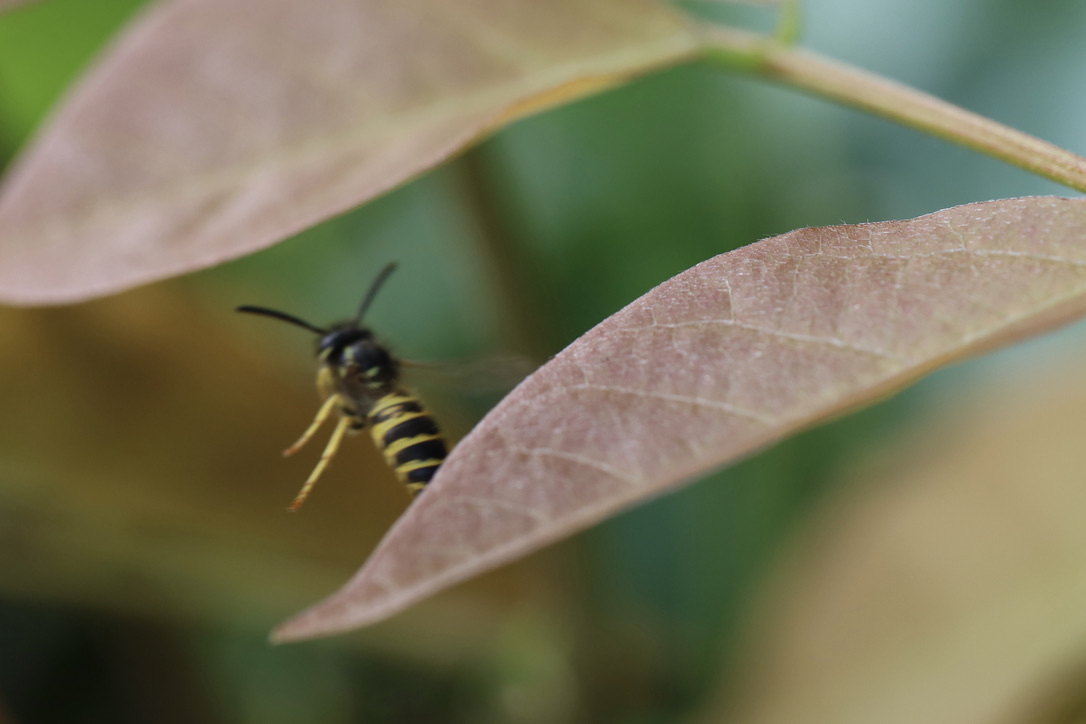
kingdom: Animalia
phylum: Arthropoda
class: Insecta
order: Hymenoptera
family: Vespidae
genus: Vespula
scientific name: Vespula alascensis
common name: Alaska yellowjacket
